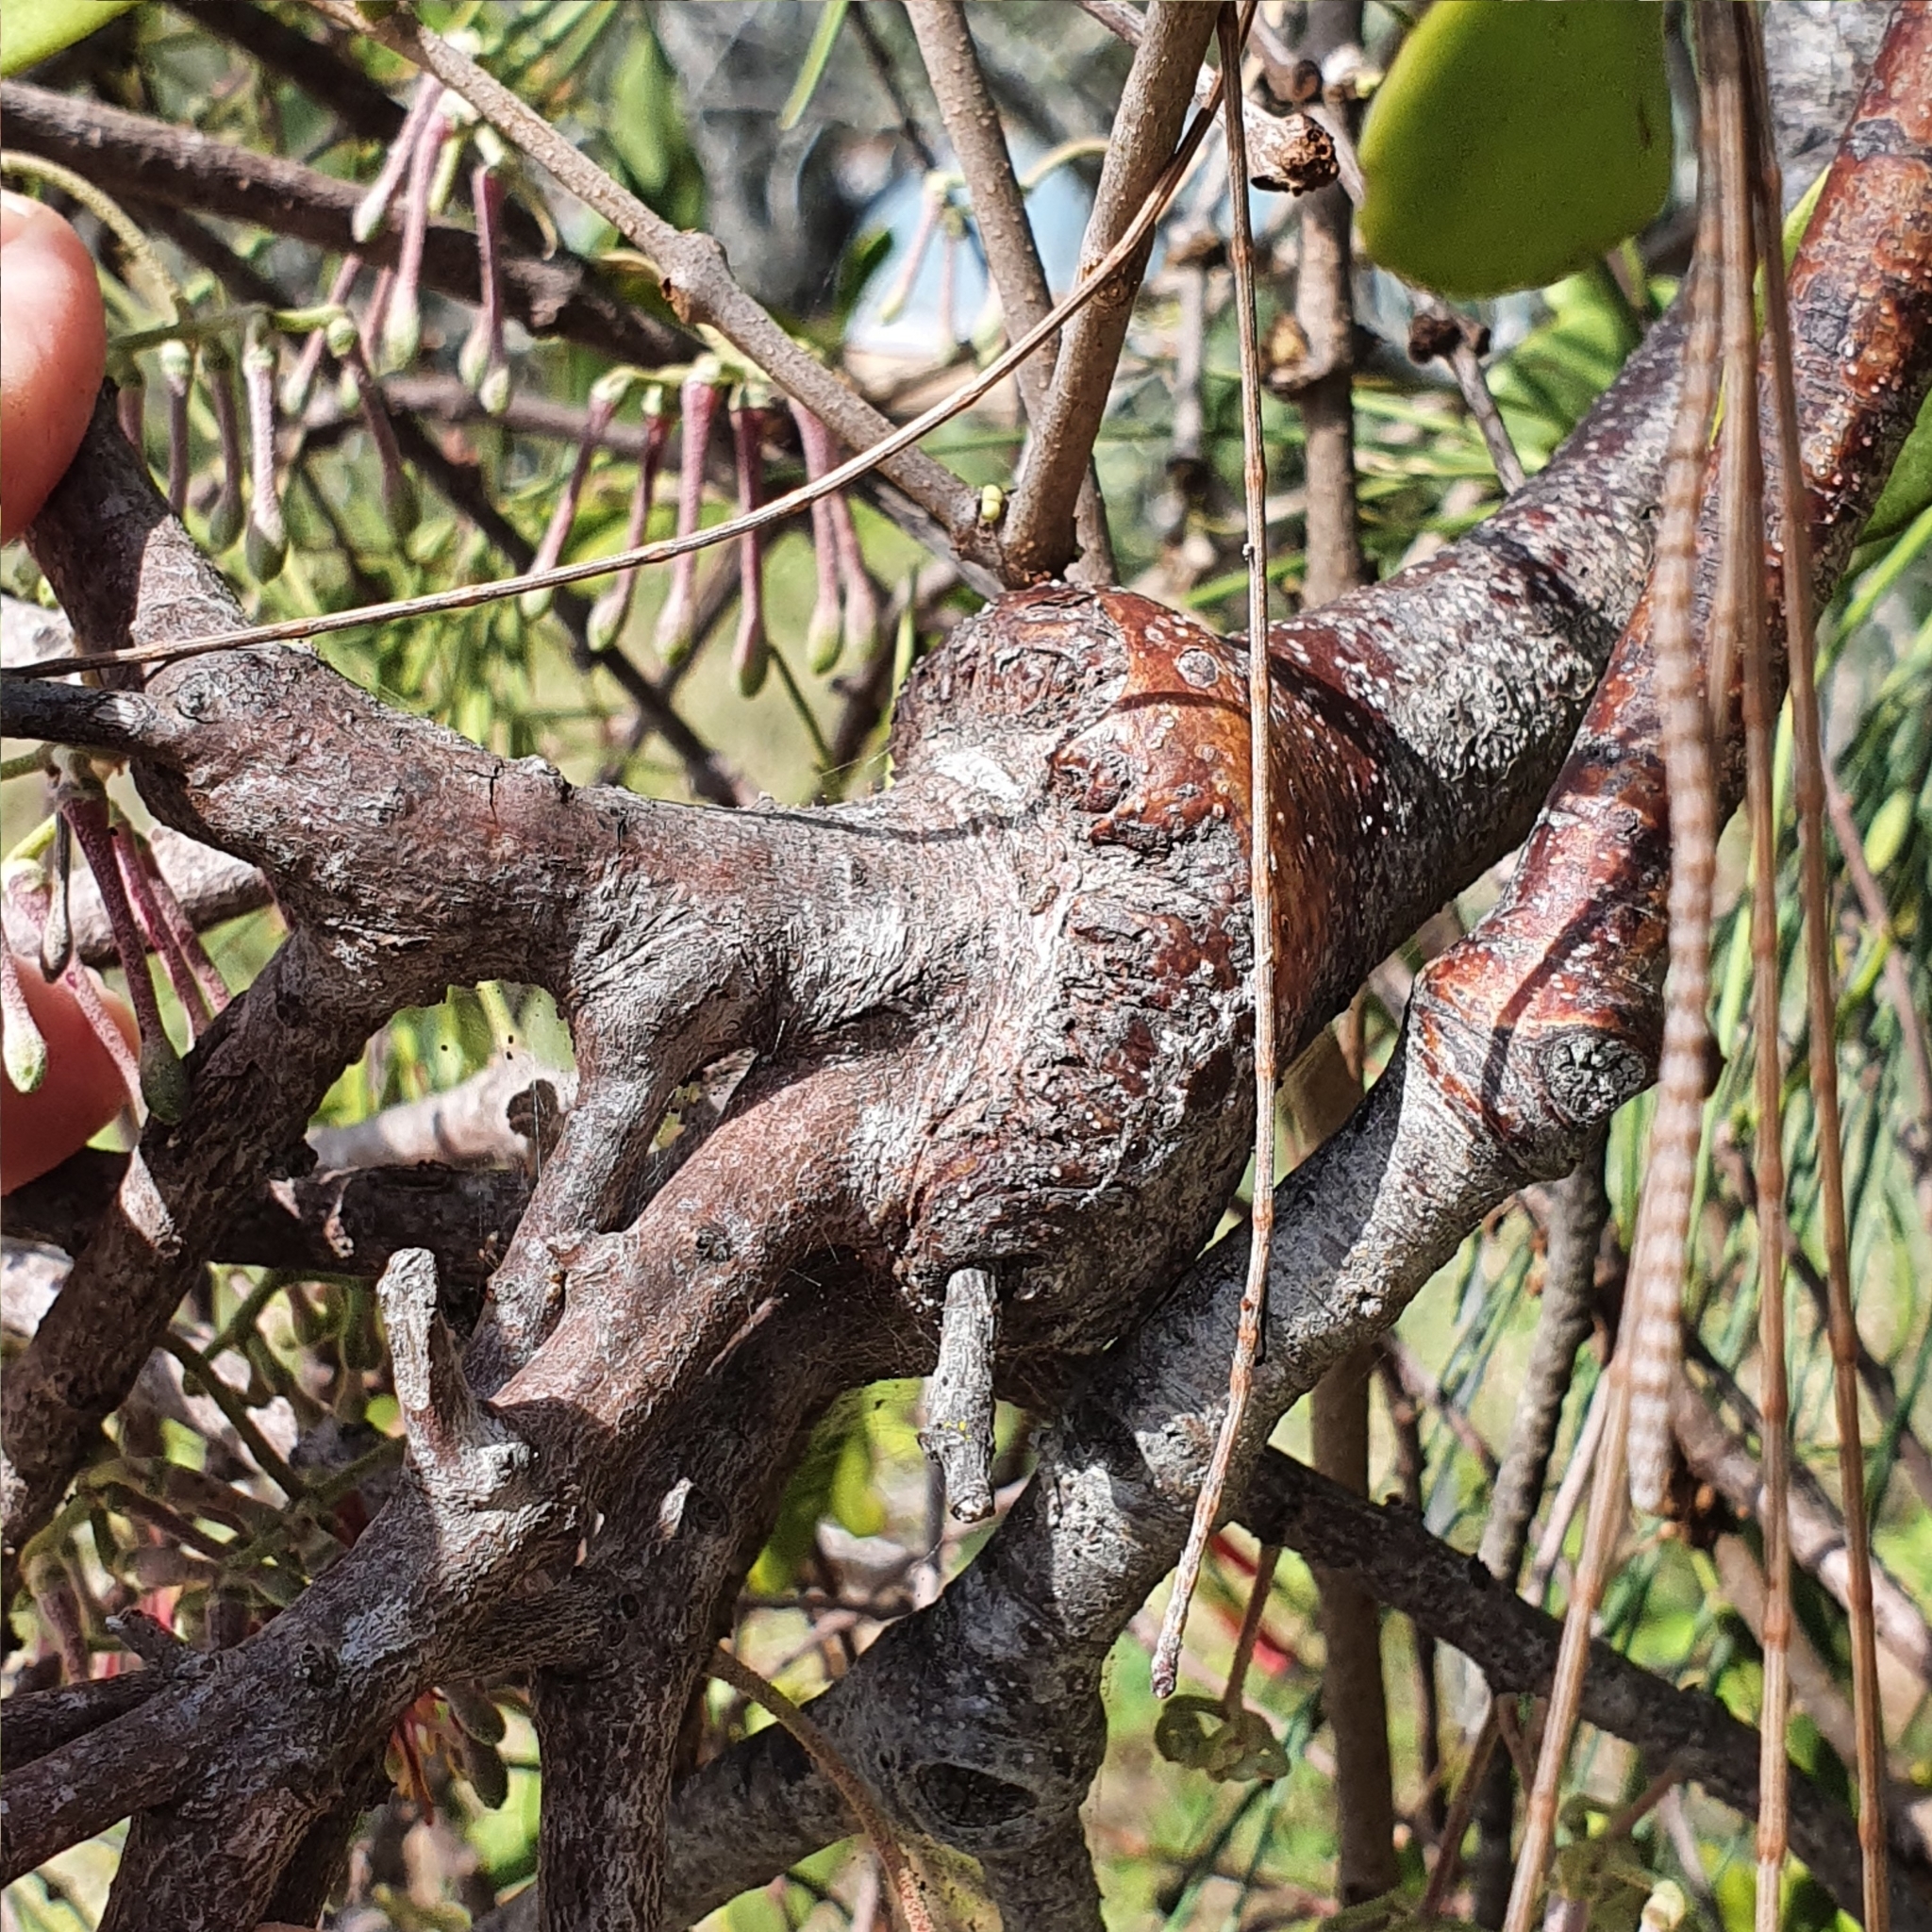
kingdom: Plantae
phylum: Tracheophyta
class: Magnoliopsida
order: Santalales
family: Loranthaceae
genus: Amyema
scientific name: Amyema cambagei
